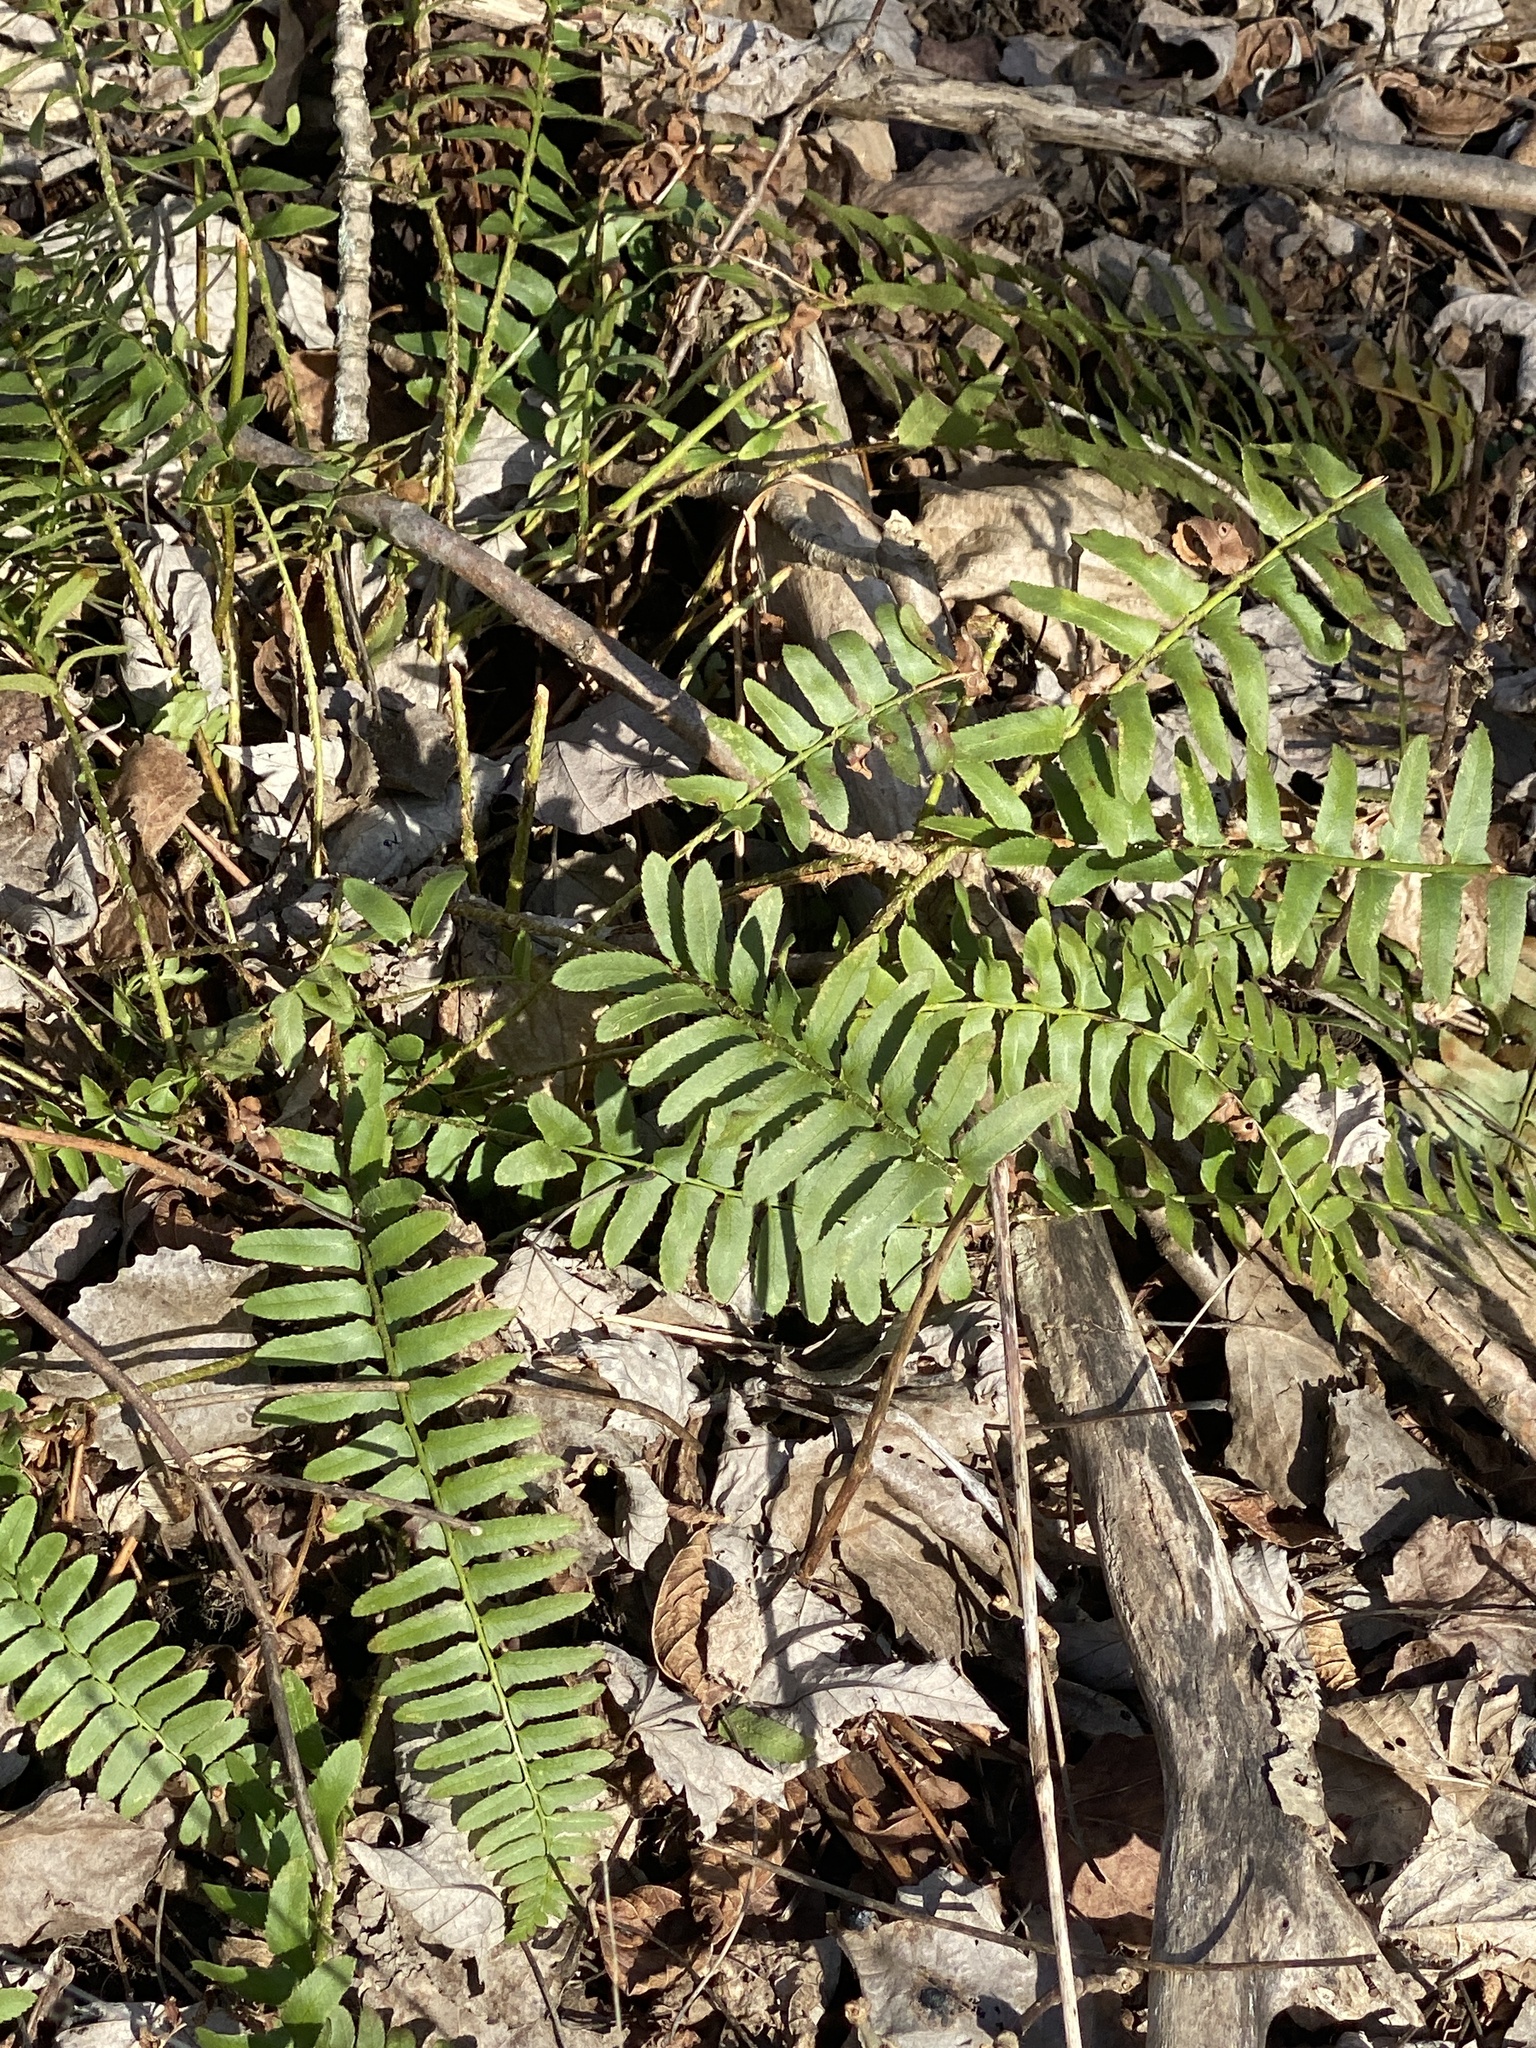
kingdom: Plantae
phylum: Tracheophyta
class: Polypodiopsida
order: Polypodiales
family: Dryopteridaceae
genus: Polystichum
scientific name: Polystichum acrostichoides
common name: Christmas fern
